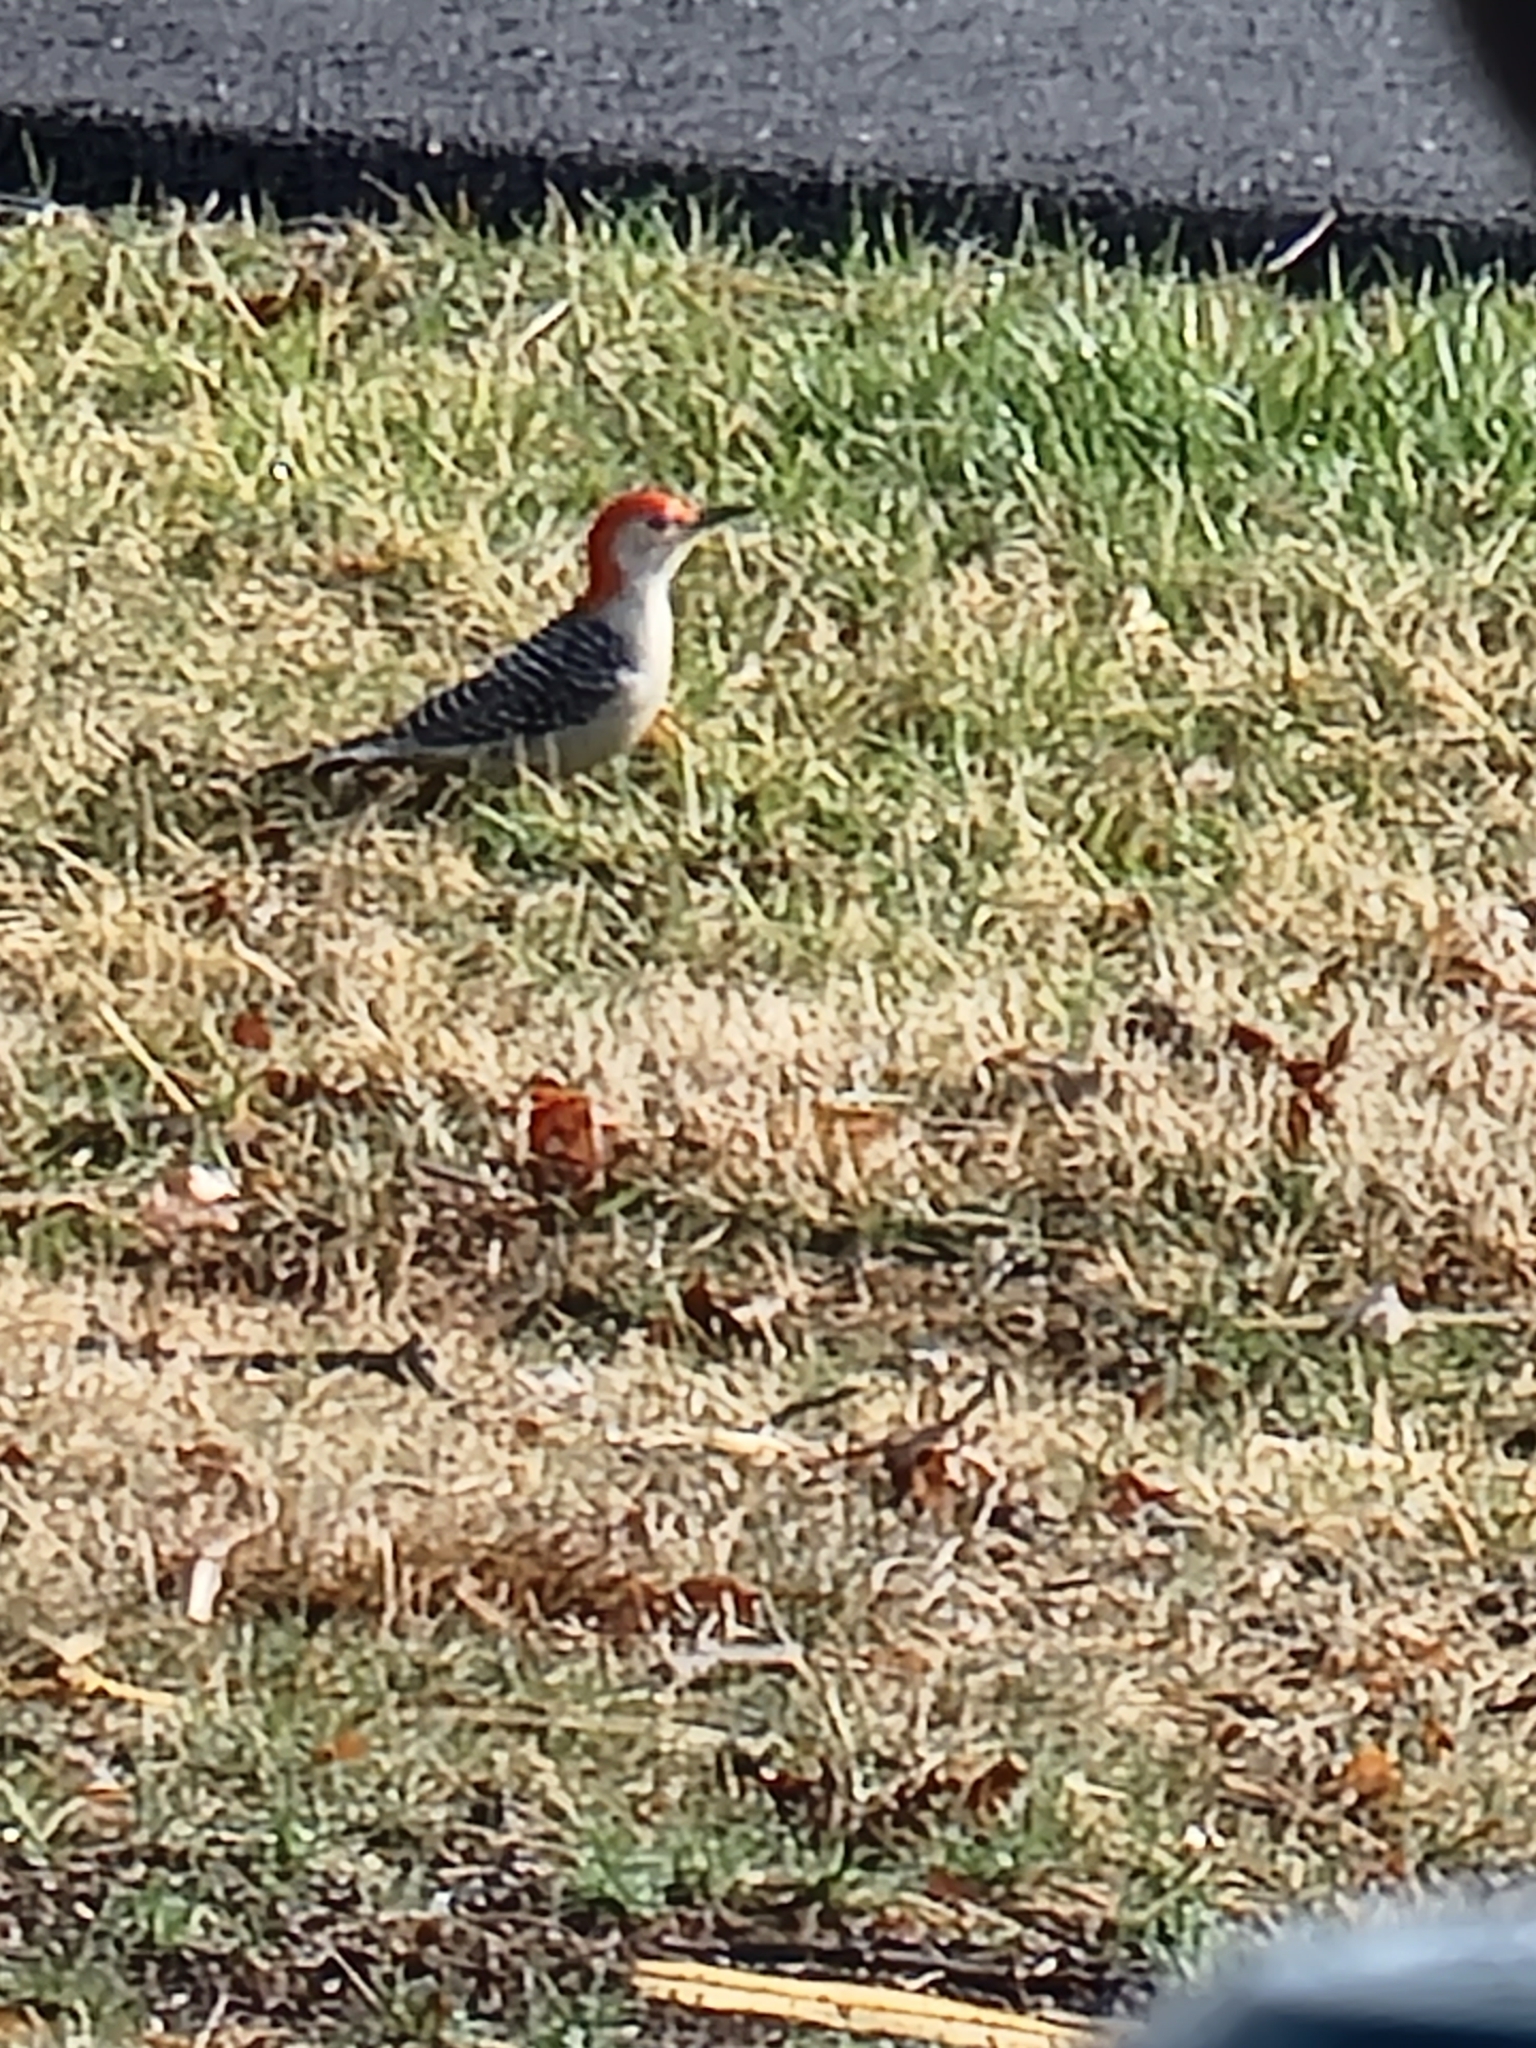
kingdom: Animalia
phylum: Chordata
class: Aves
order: Piciformes
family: Picidae
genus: Melanerpes
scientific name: Melanerpes carolinus
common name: Red-bellied woodpecker
